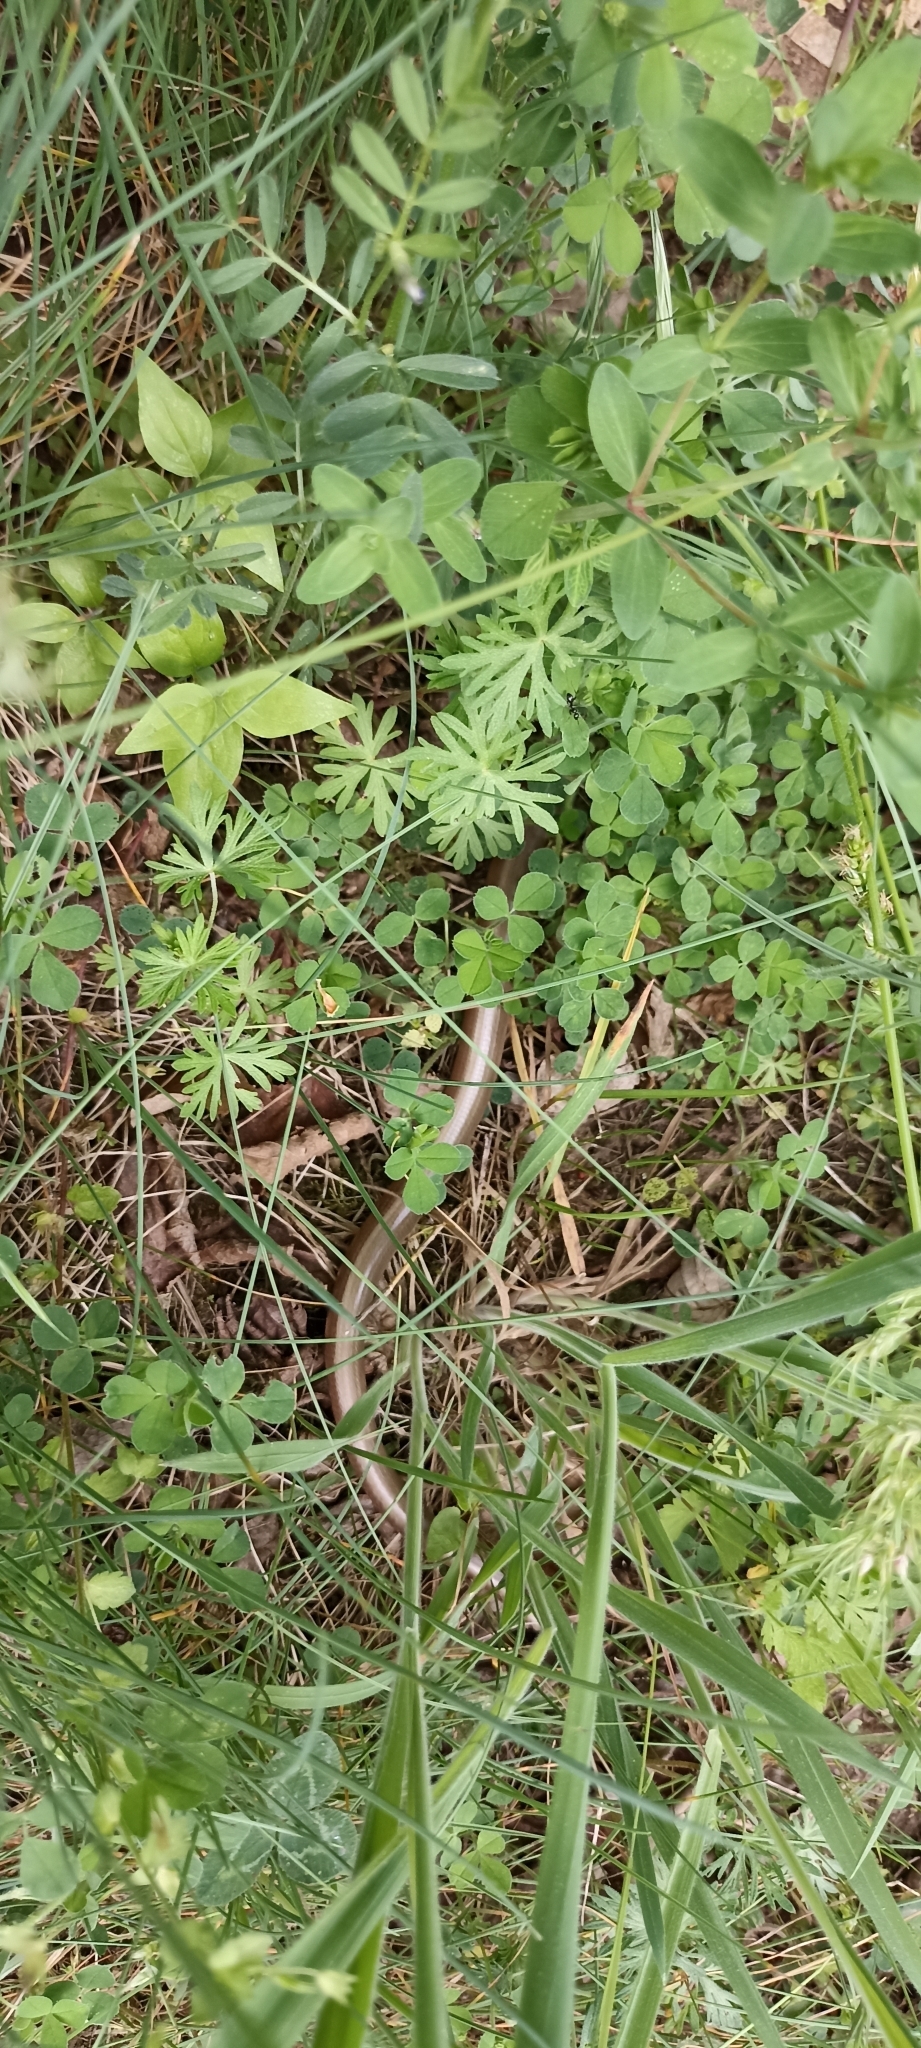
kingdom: Animalia
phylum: Chordata
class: Squamata
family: Anguidae
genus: Anguis
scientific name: Anguis fragilis
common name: Slow worm
